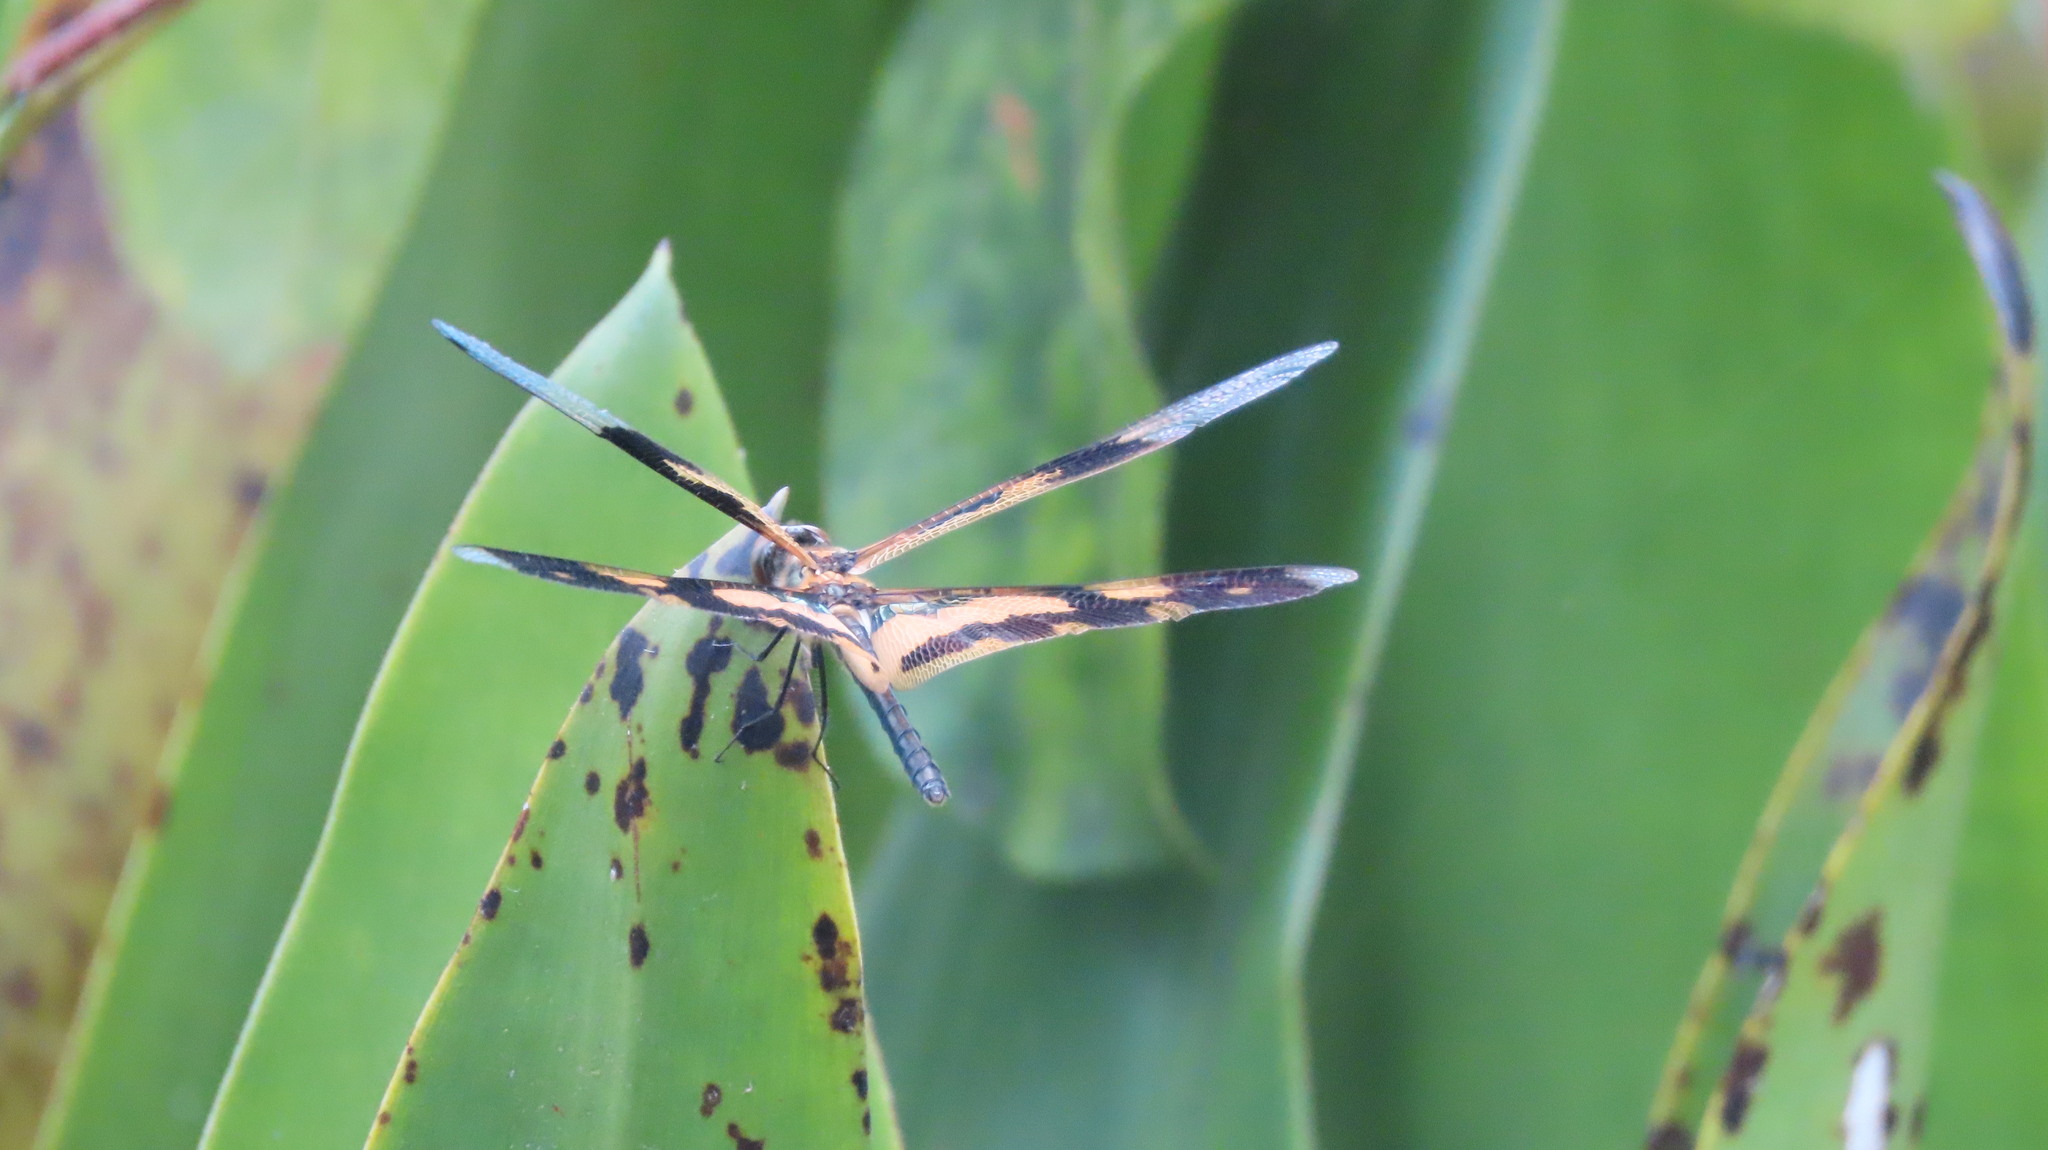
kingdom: Animalia
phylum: Arthropoda
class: Insecta
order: Odonata
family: Libellulidae
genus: Rhyothemis
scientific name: Rhyothemis variegata
